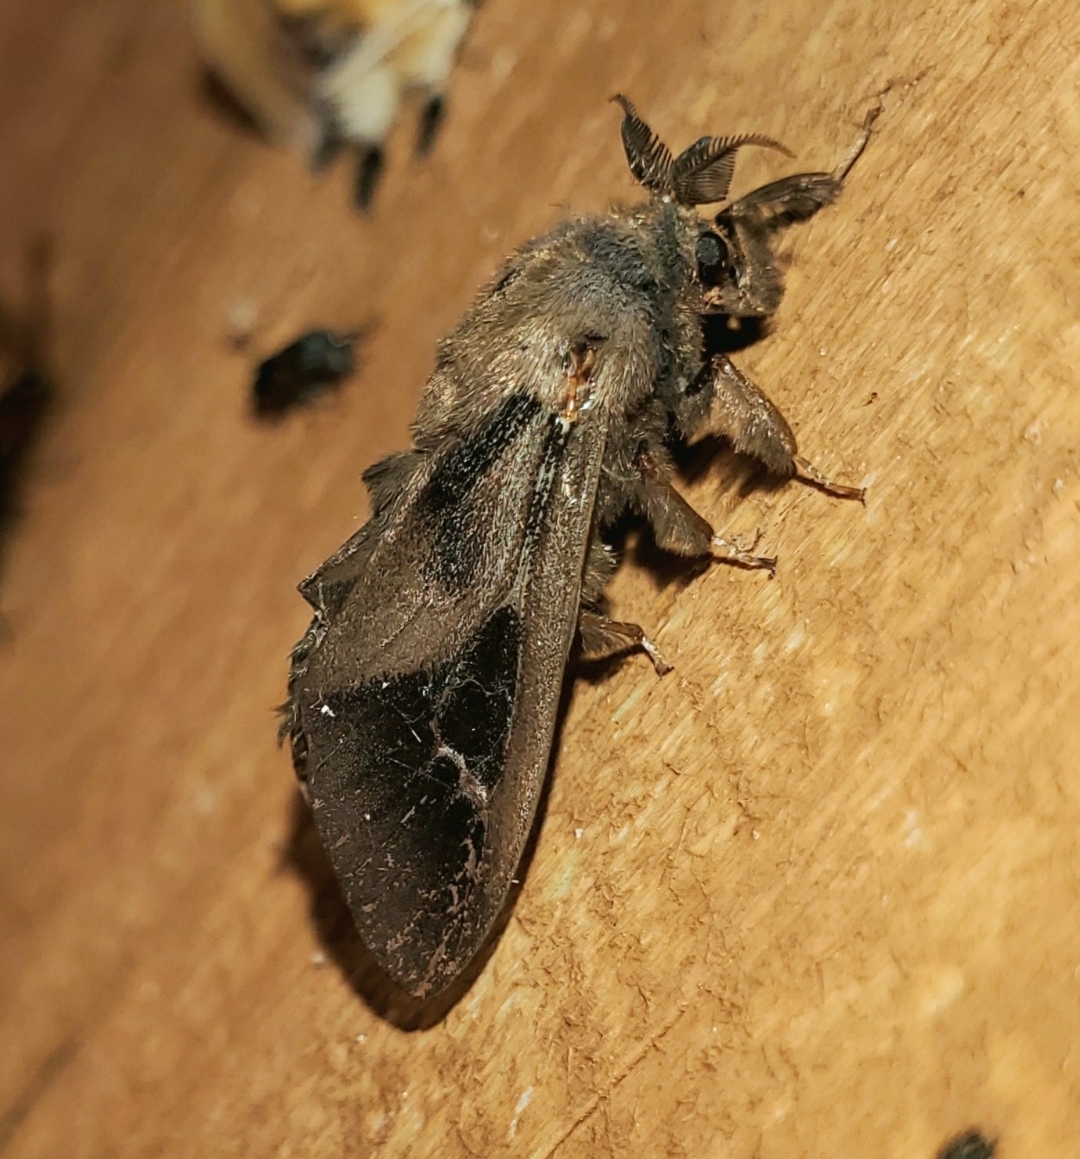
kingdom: Animalia
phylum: Arthropoda
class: Insecta
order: Lepidoptera
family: Psychidae
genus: Oiketicus
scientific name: Oiketicus
